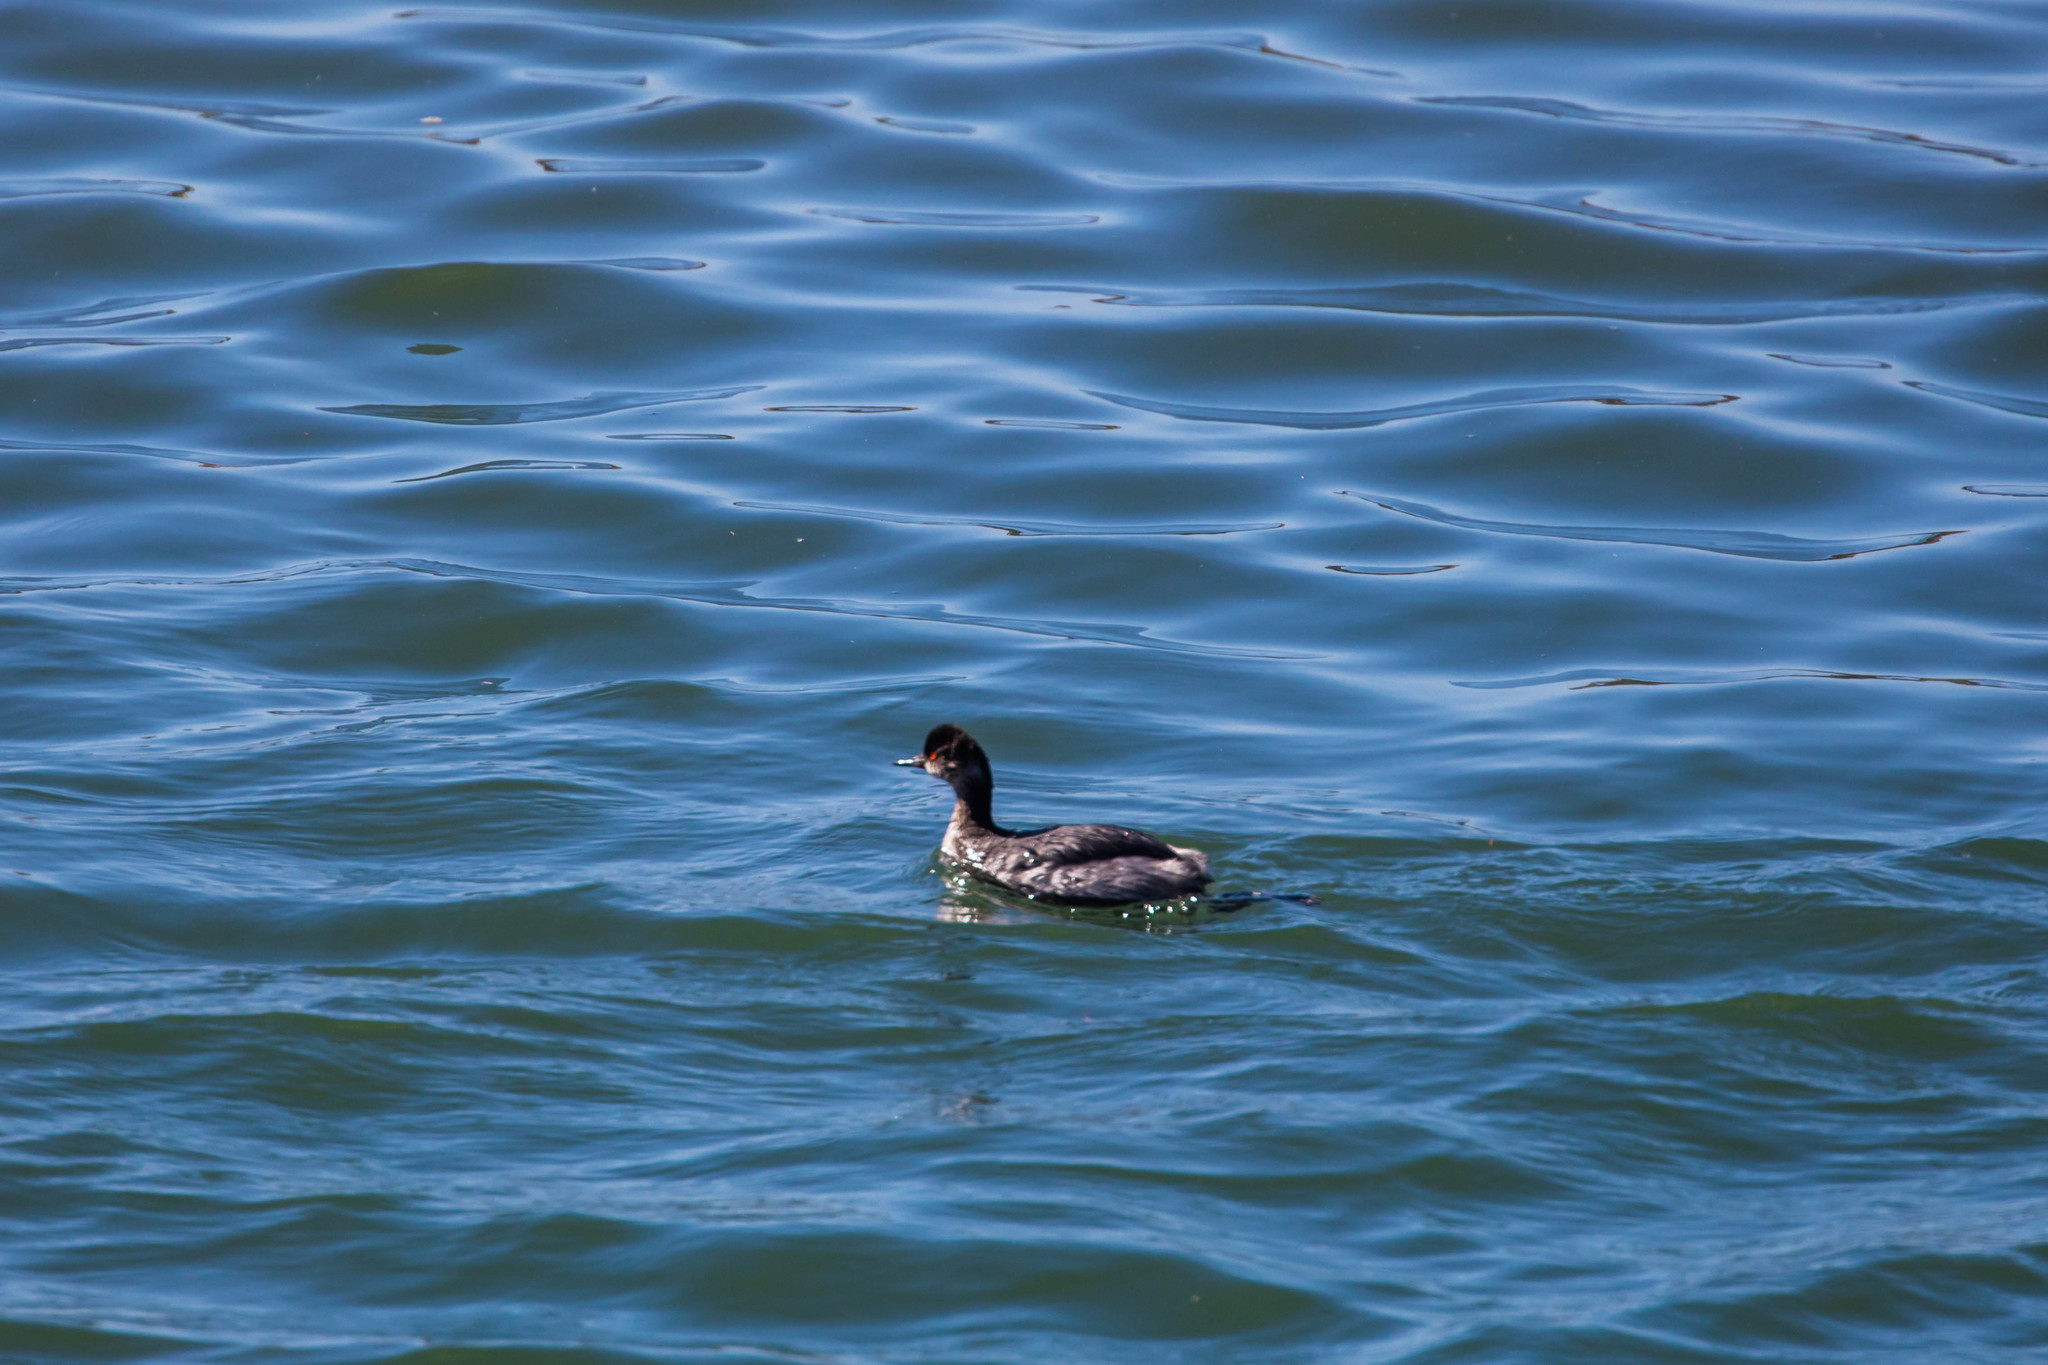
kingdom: Animalia
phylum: Chordata
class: Aves
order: Podicipediformes
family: Podicipedidae
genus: Podiceps
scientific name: Podiceps nigricollis
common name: Black-necked grebe
